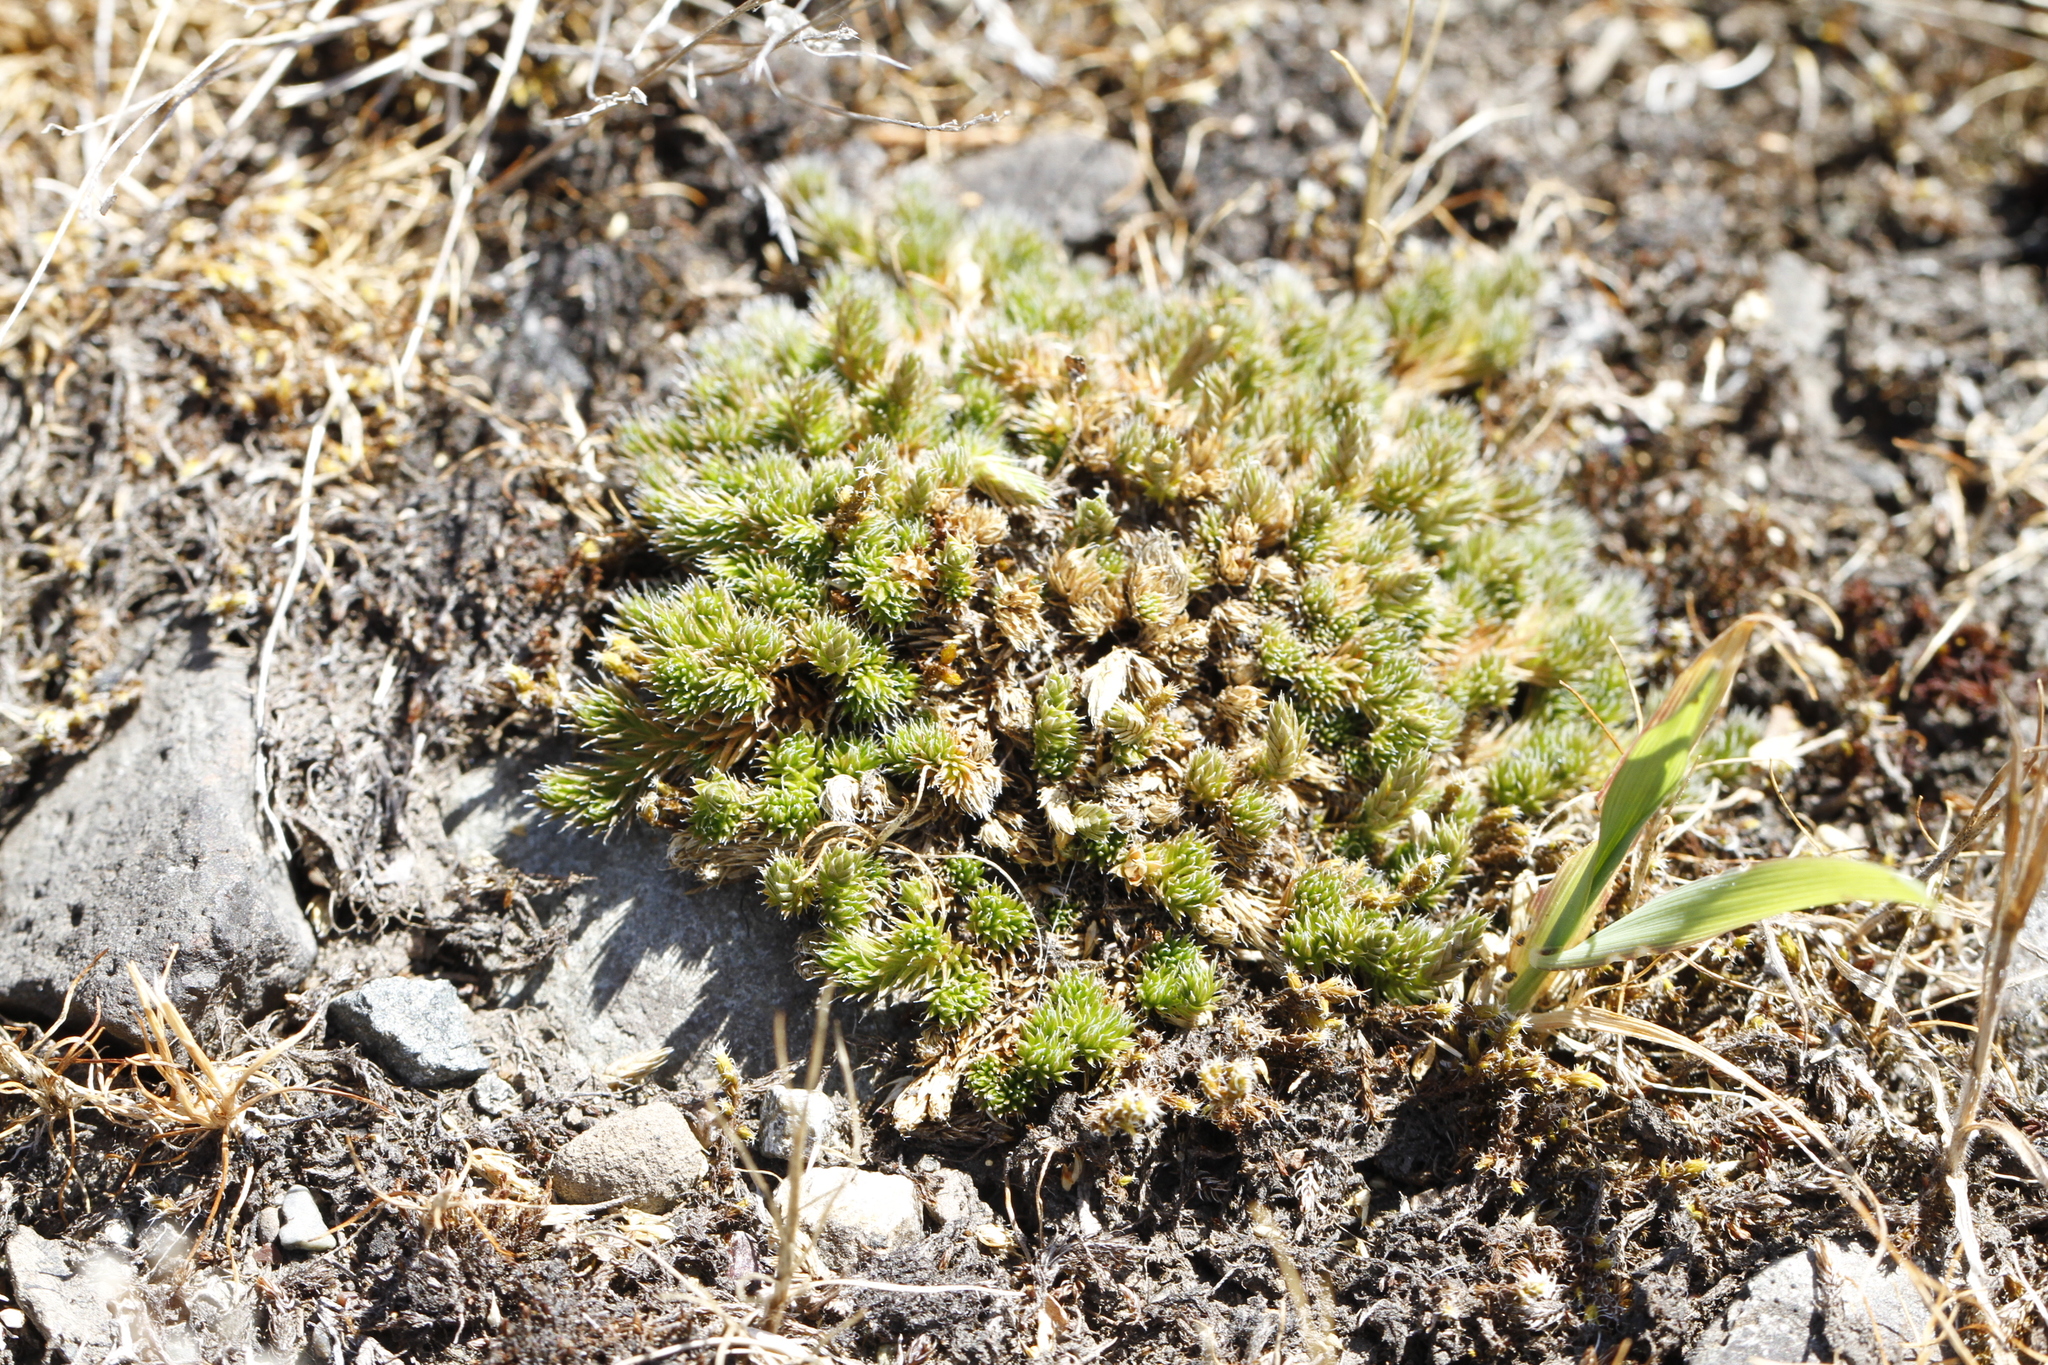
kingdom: Plantae
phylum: Tracheophyta
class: Lycopodiopsida
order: Selaginellales
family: Selaginellaceae
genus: Selaginella
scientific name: Selaginella densa
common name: Mountain spike-moss
